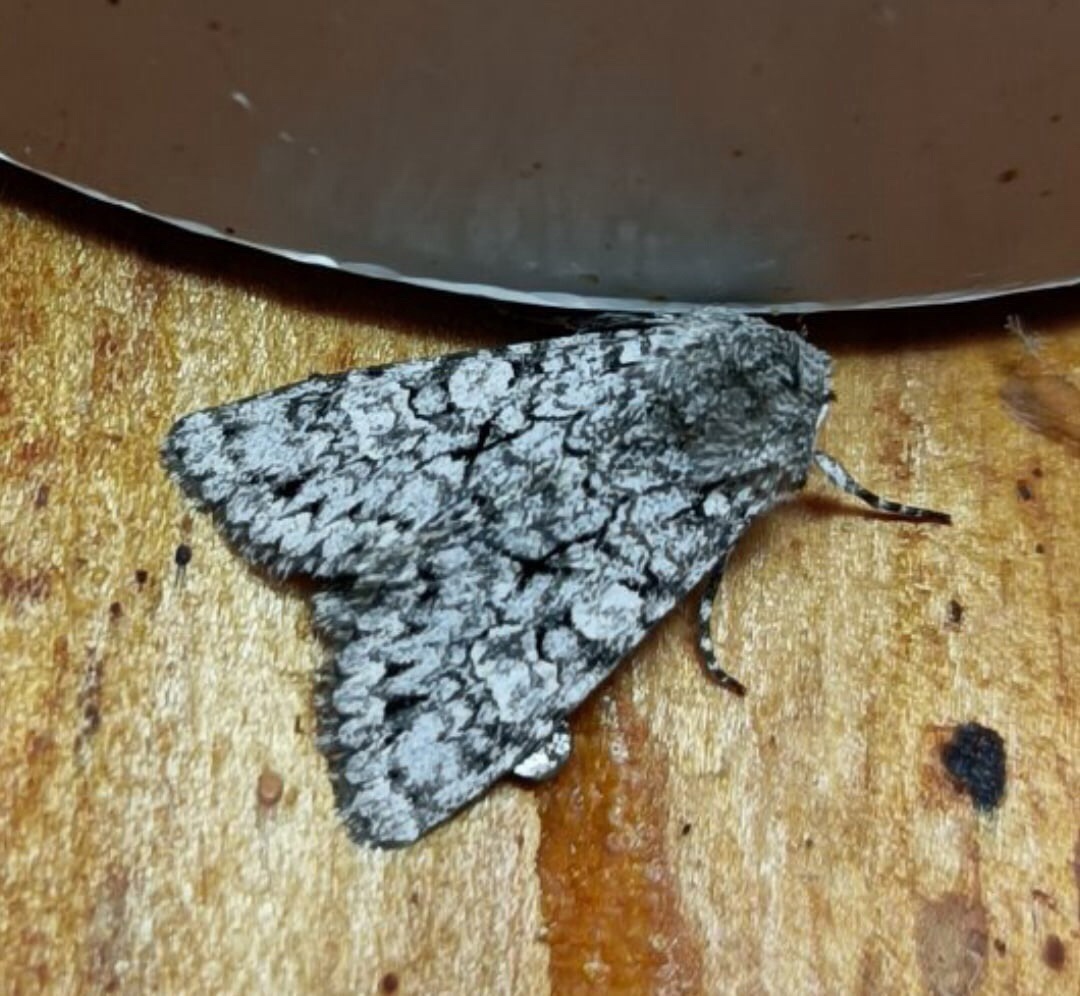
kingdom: Animalia
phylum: Arthropoda
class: Insecta
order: Lepidoptera
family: Noctuidae
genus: Antitype
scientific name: Antitype chi
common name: Grey chi
